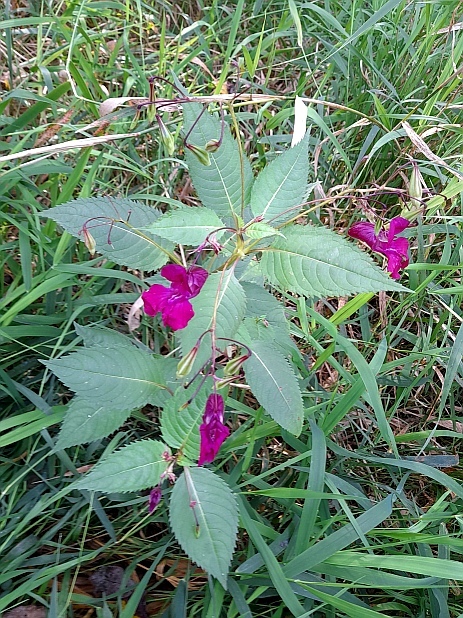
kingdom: Plantae
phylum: Tracheophyta
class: Magnoliopsida
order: Ericales
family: Balsaminaceae
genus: Impatiens
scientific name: Impatiens glandulifera
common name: Himalayan balsam
